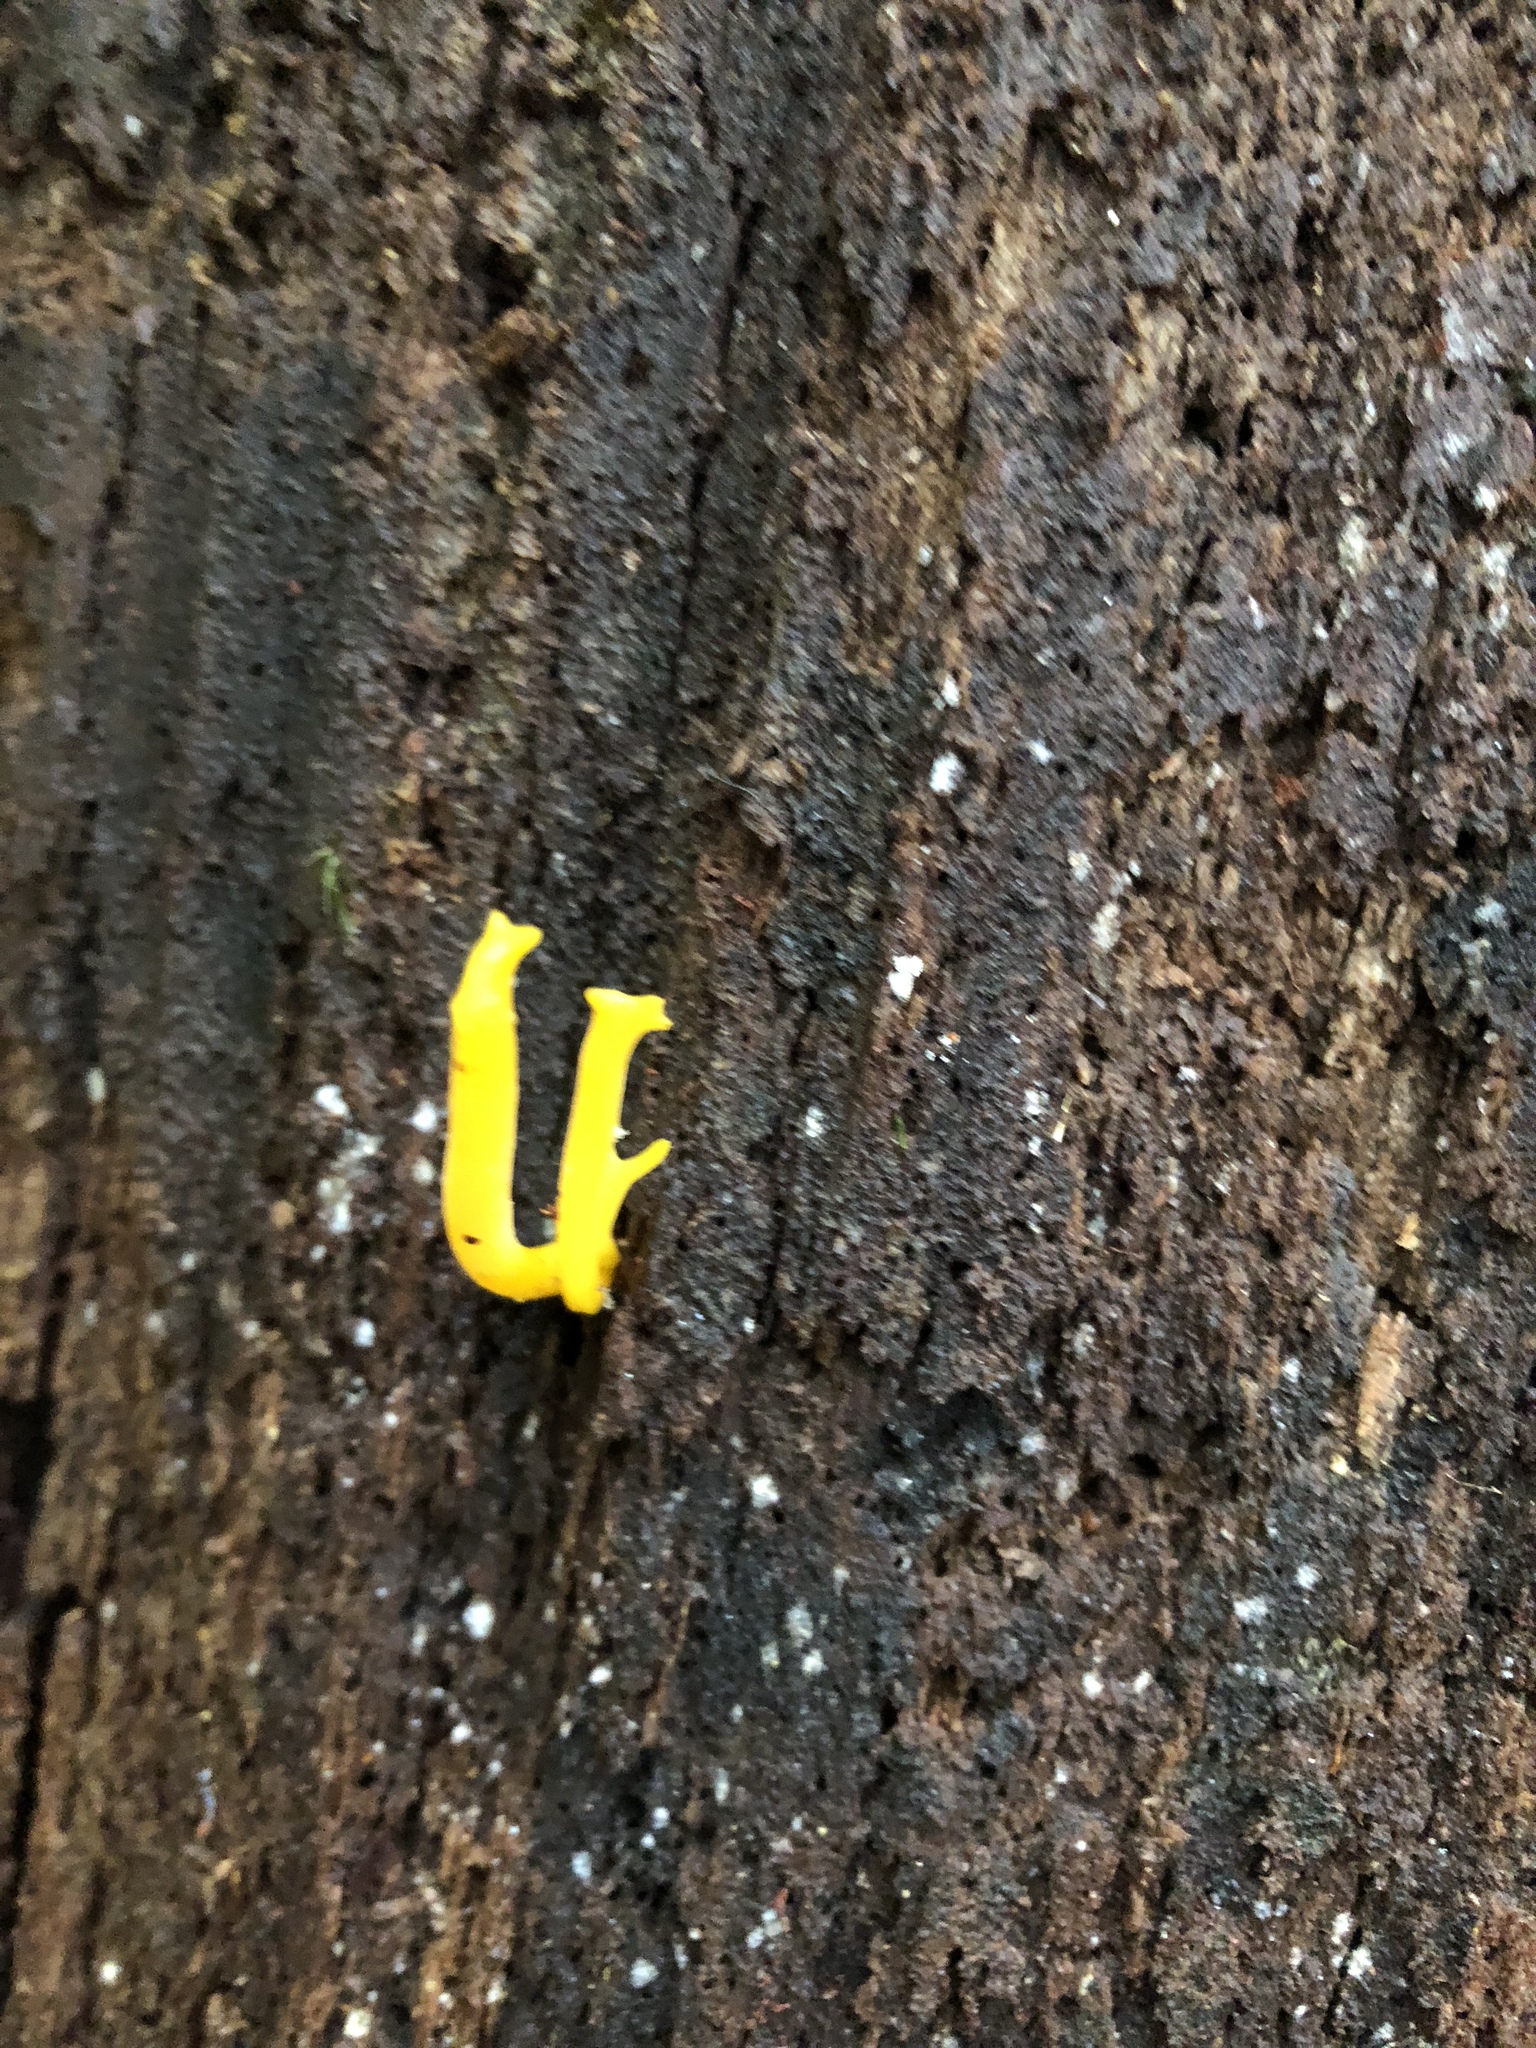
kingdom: Fungi
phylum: Basidiomycota
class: Dacrymycetes
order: Dacrymycetales
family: Dacrymycetaceae
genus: Calocera
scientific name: Calocera viscosa
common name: Yellow stagshorn
